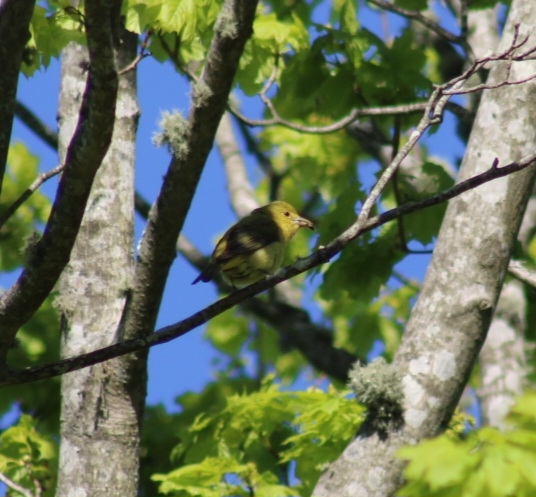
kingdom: Animalia
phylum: Chordata
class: Aves
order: Passeriformes
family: Cardinalidae
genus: Piranga
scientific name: Piranga olivacea
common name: Scarlet tanager
